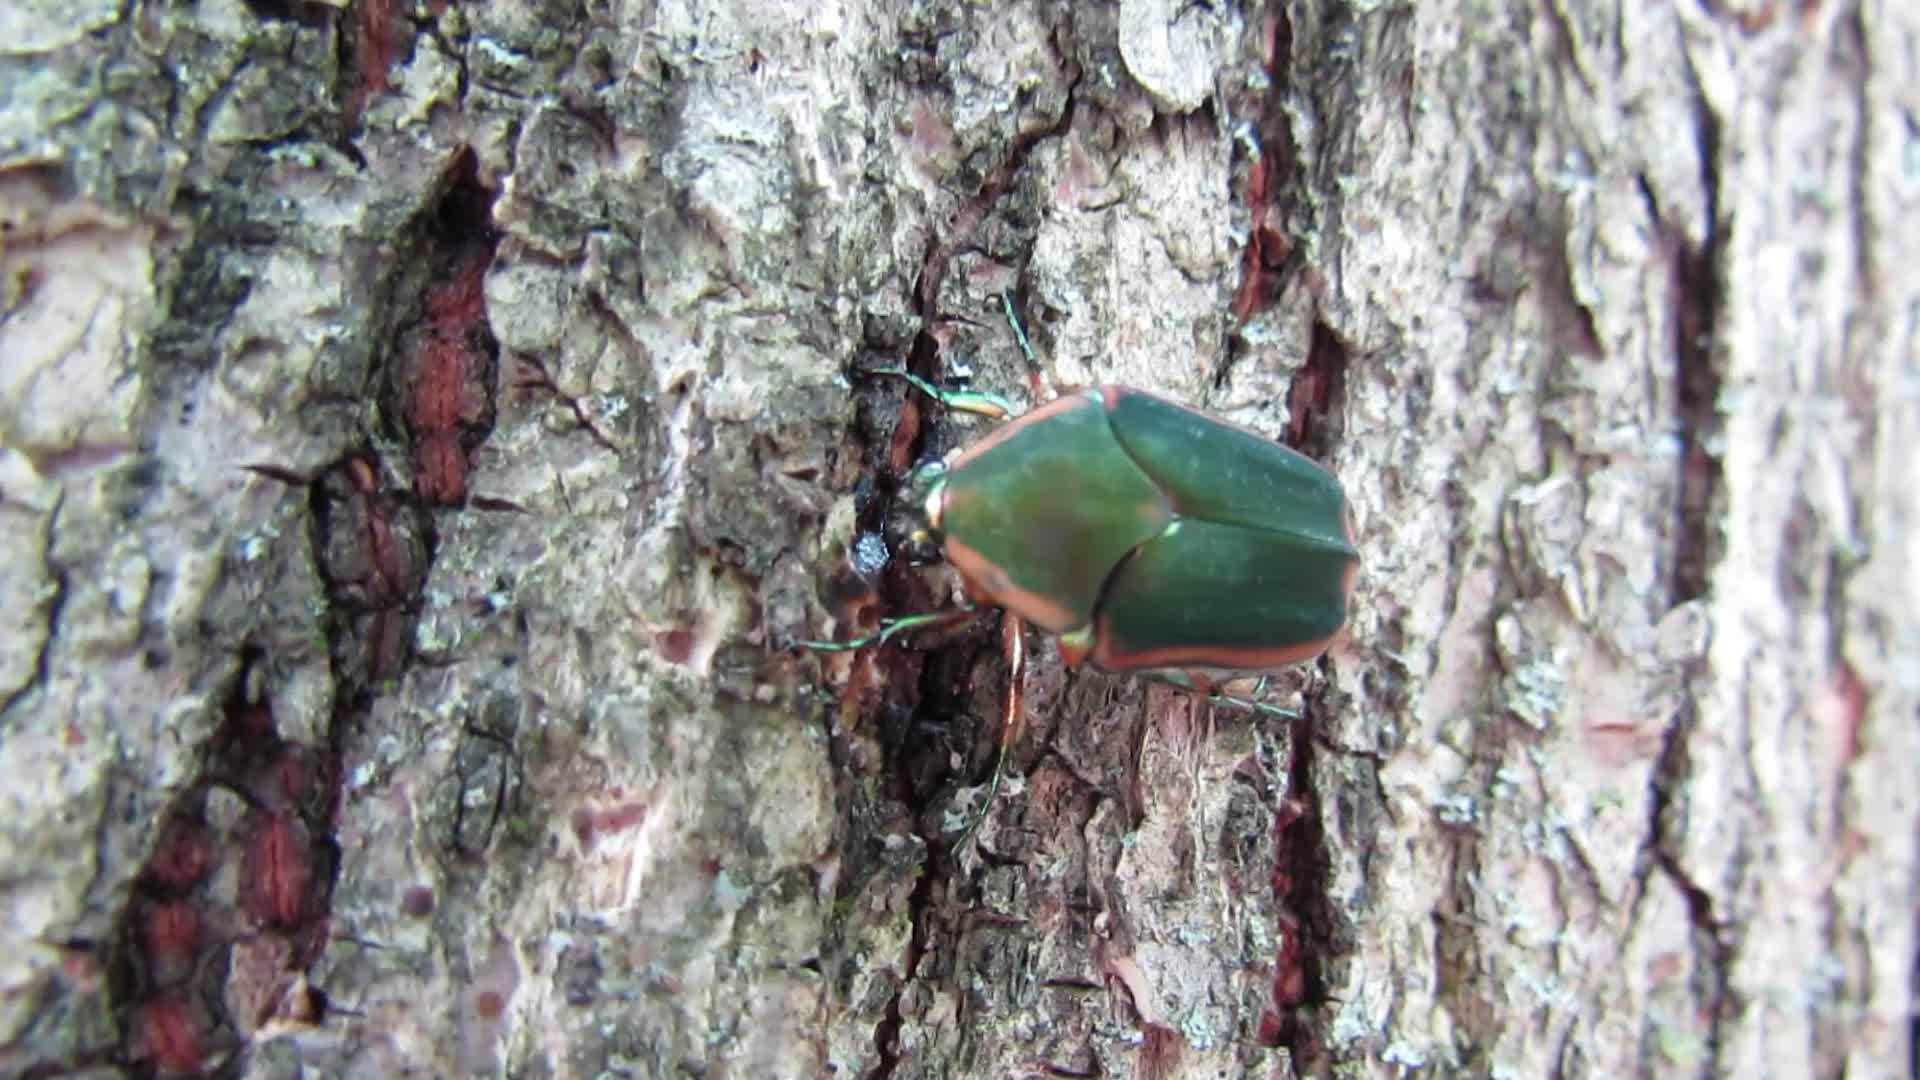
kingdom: Animalia
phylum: Arthropoda
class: Insecta
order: Coleoptera
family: Scarabaeidae
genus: Cotinis
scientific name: Cotinis nitida
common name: Common green june beetle
